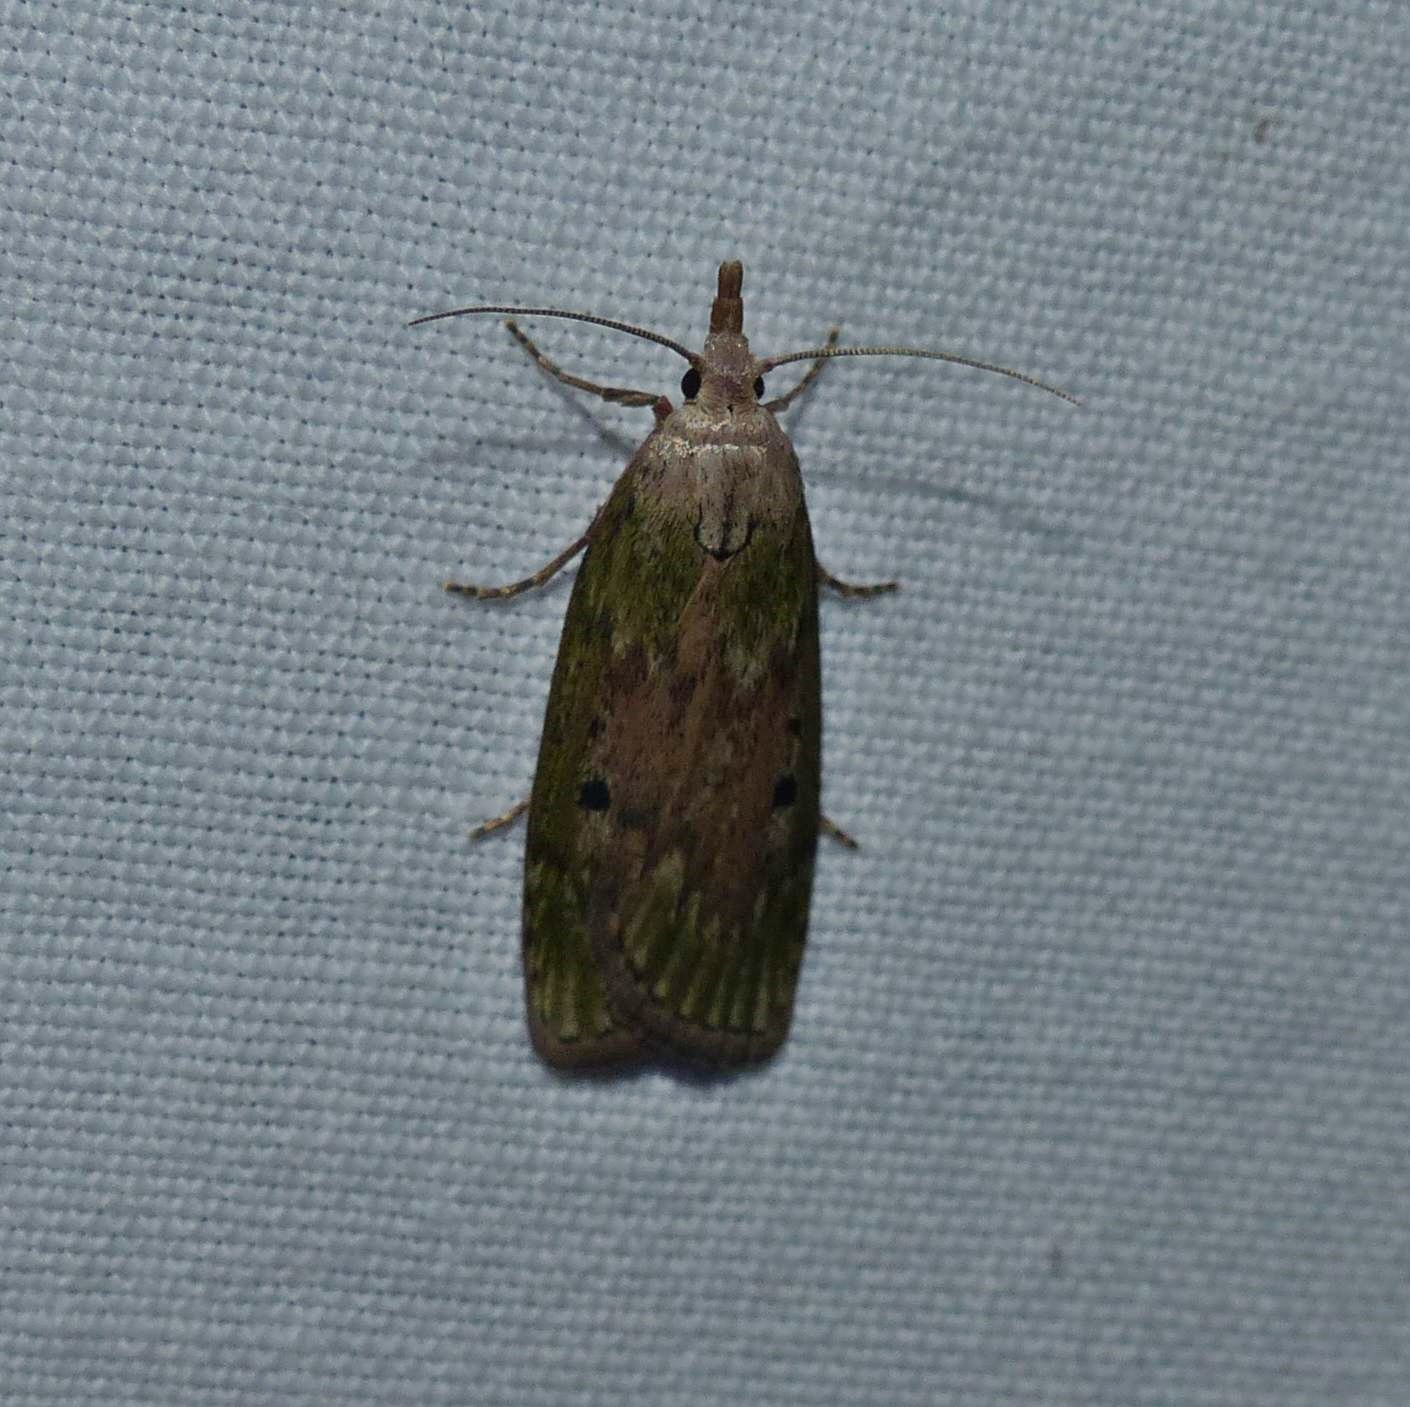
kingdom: Animalia
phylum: Arthropoda
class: Insecta
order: Lepidoptera
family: Pyralidae
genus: Aphomia
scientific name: Aphomia sociella
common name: Bee moth
